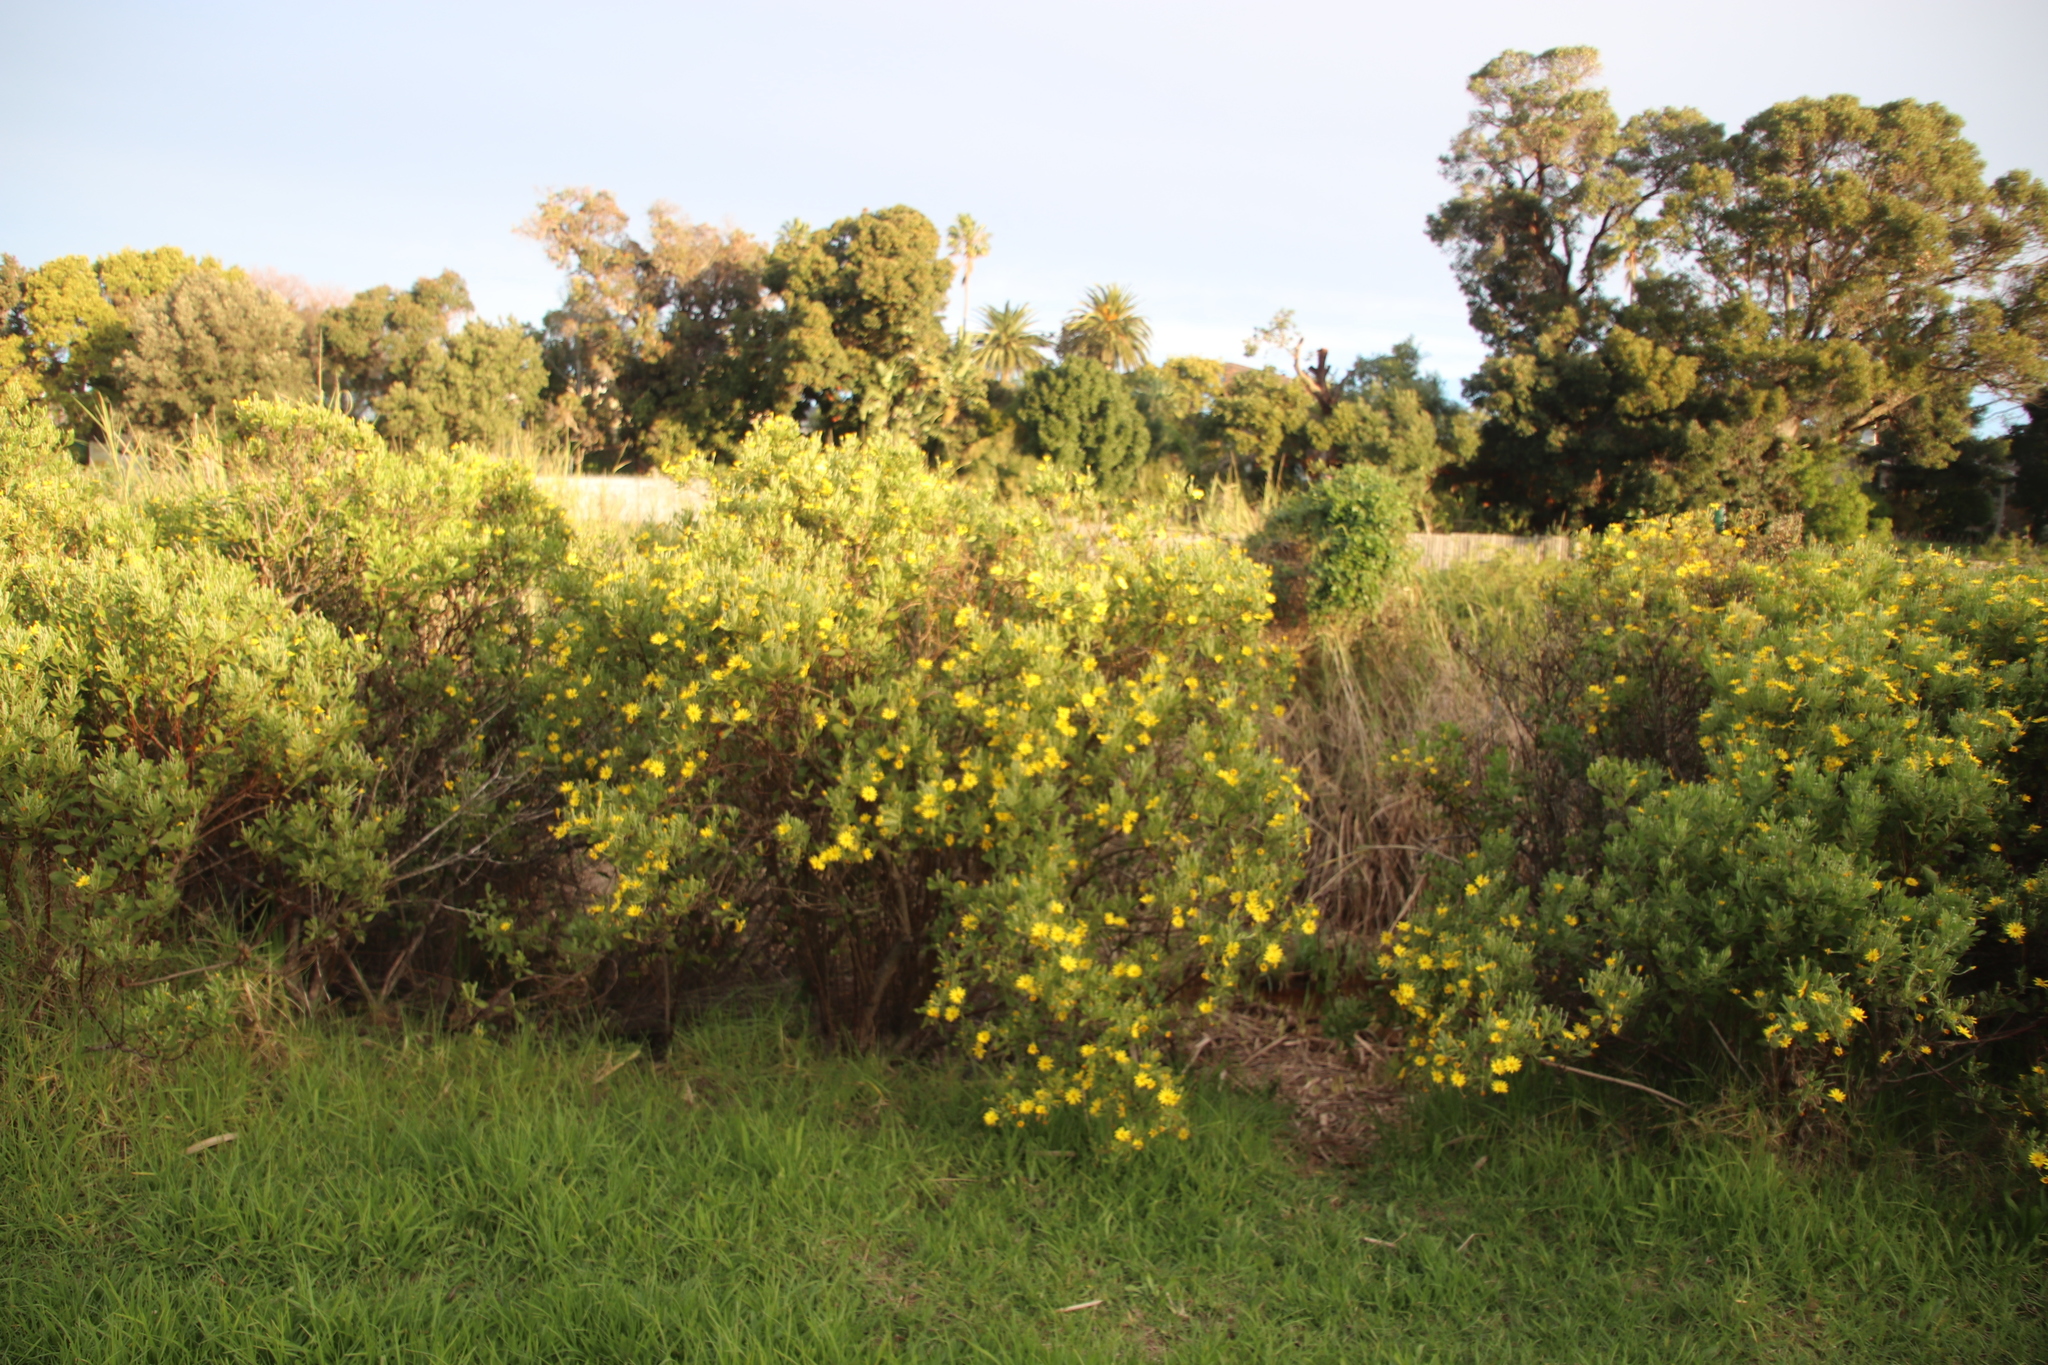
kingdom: Plantae
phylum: Tracheophyta
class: Magnoliopsida
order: Asterales
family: Asteraceae
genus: Osteospermum
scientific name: Osteospermum moniliferum
